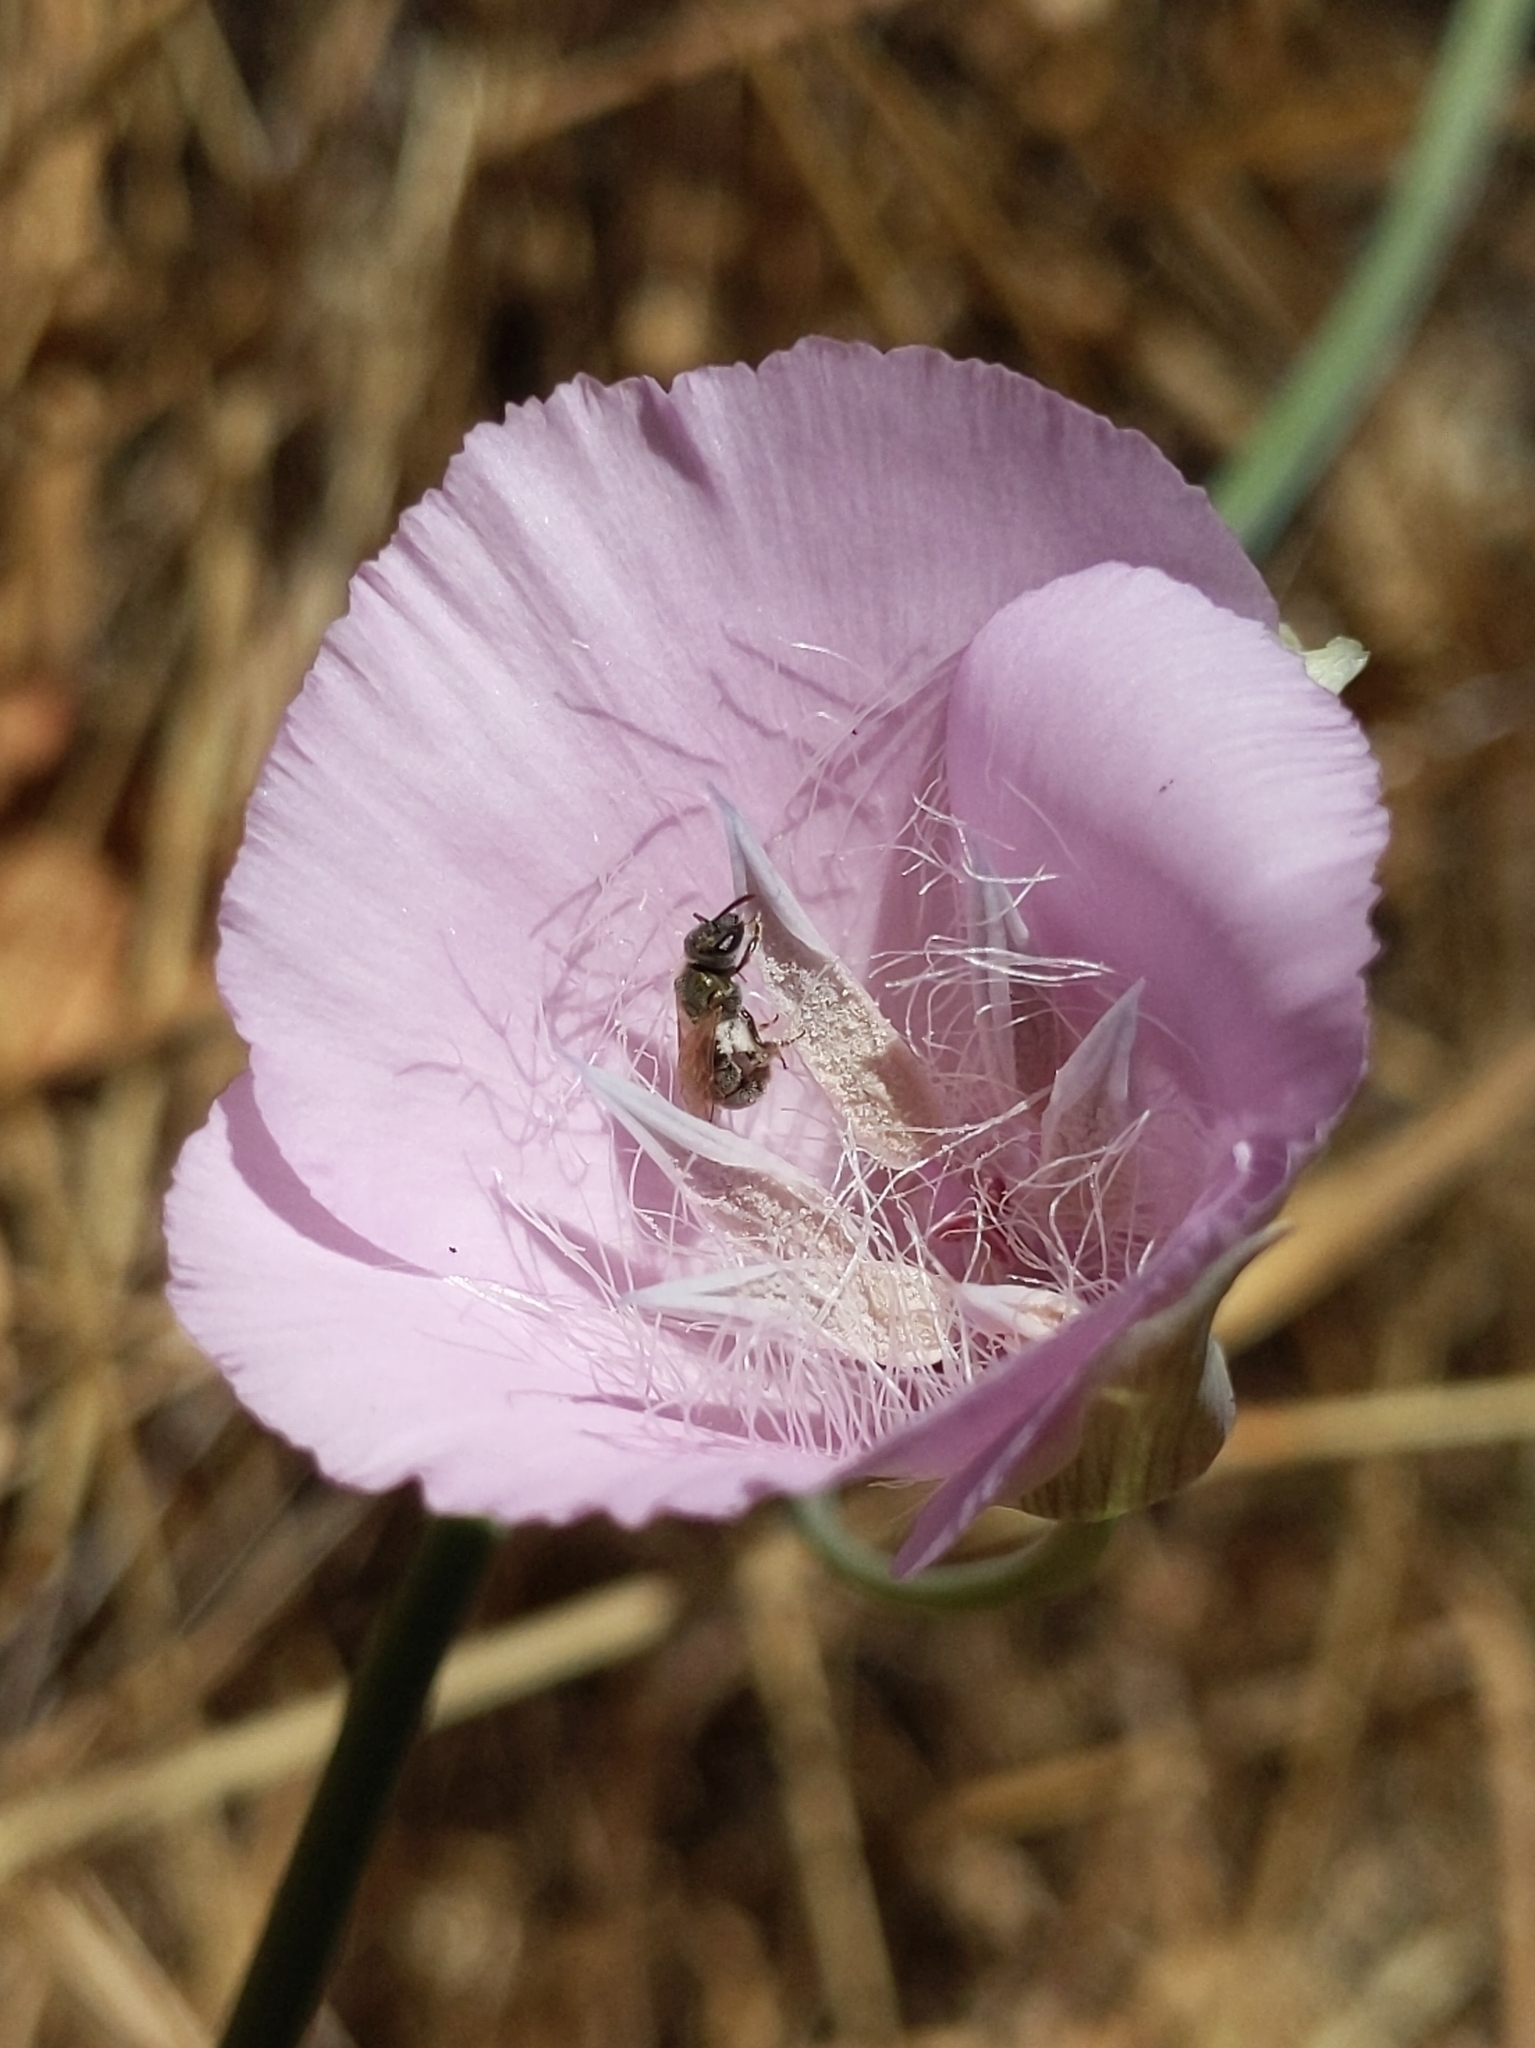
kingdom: Plantae
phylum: Tracheophyta
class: Liliopsida
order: Liliales
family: Liliaceae
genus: Calochortus
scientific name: Calochortus splendens
